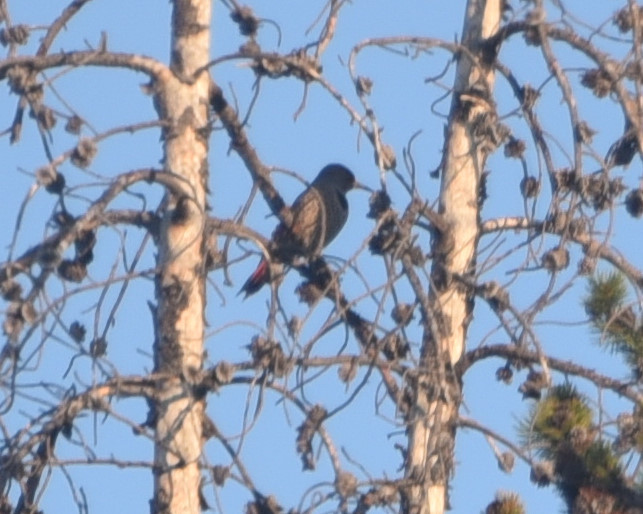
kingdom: Animalia
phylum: Chordata
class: Aves
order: Piciformes
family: Picidae
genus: Colaptes
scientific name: Colaptes auratus
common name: Northern flicker
